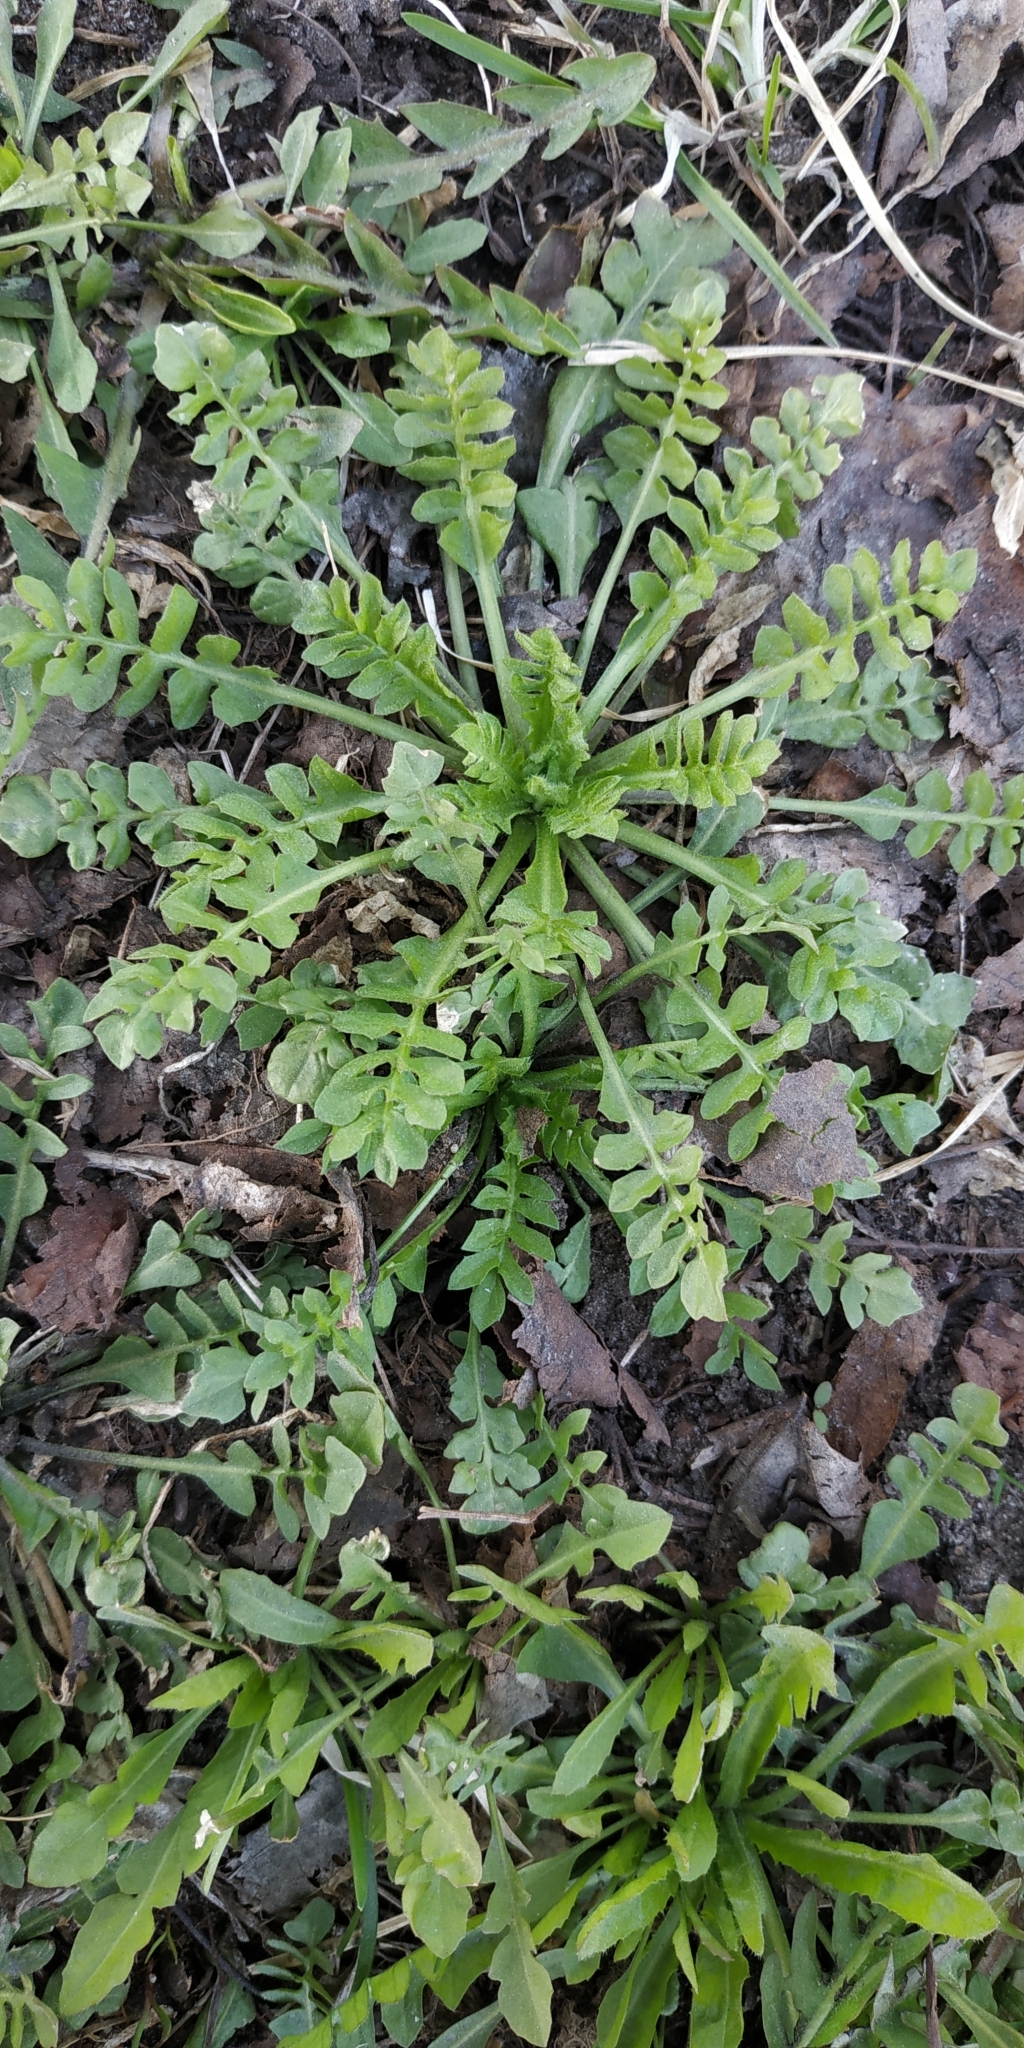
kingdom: Plantae
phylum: Tracheophyta
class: Magnoliopsida
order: Brassicales
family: Brassicaceae
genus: Capsella
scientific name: Capsella bursa-pastoris
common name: Shepherd's purse
